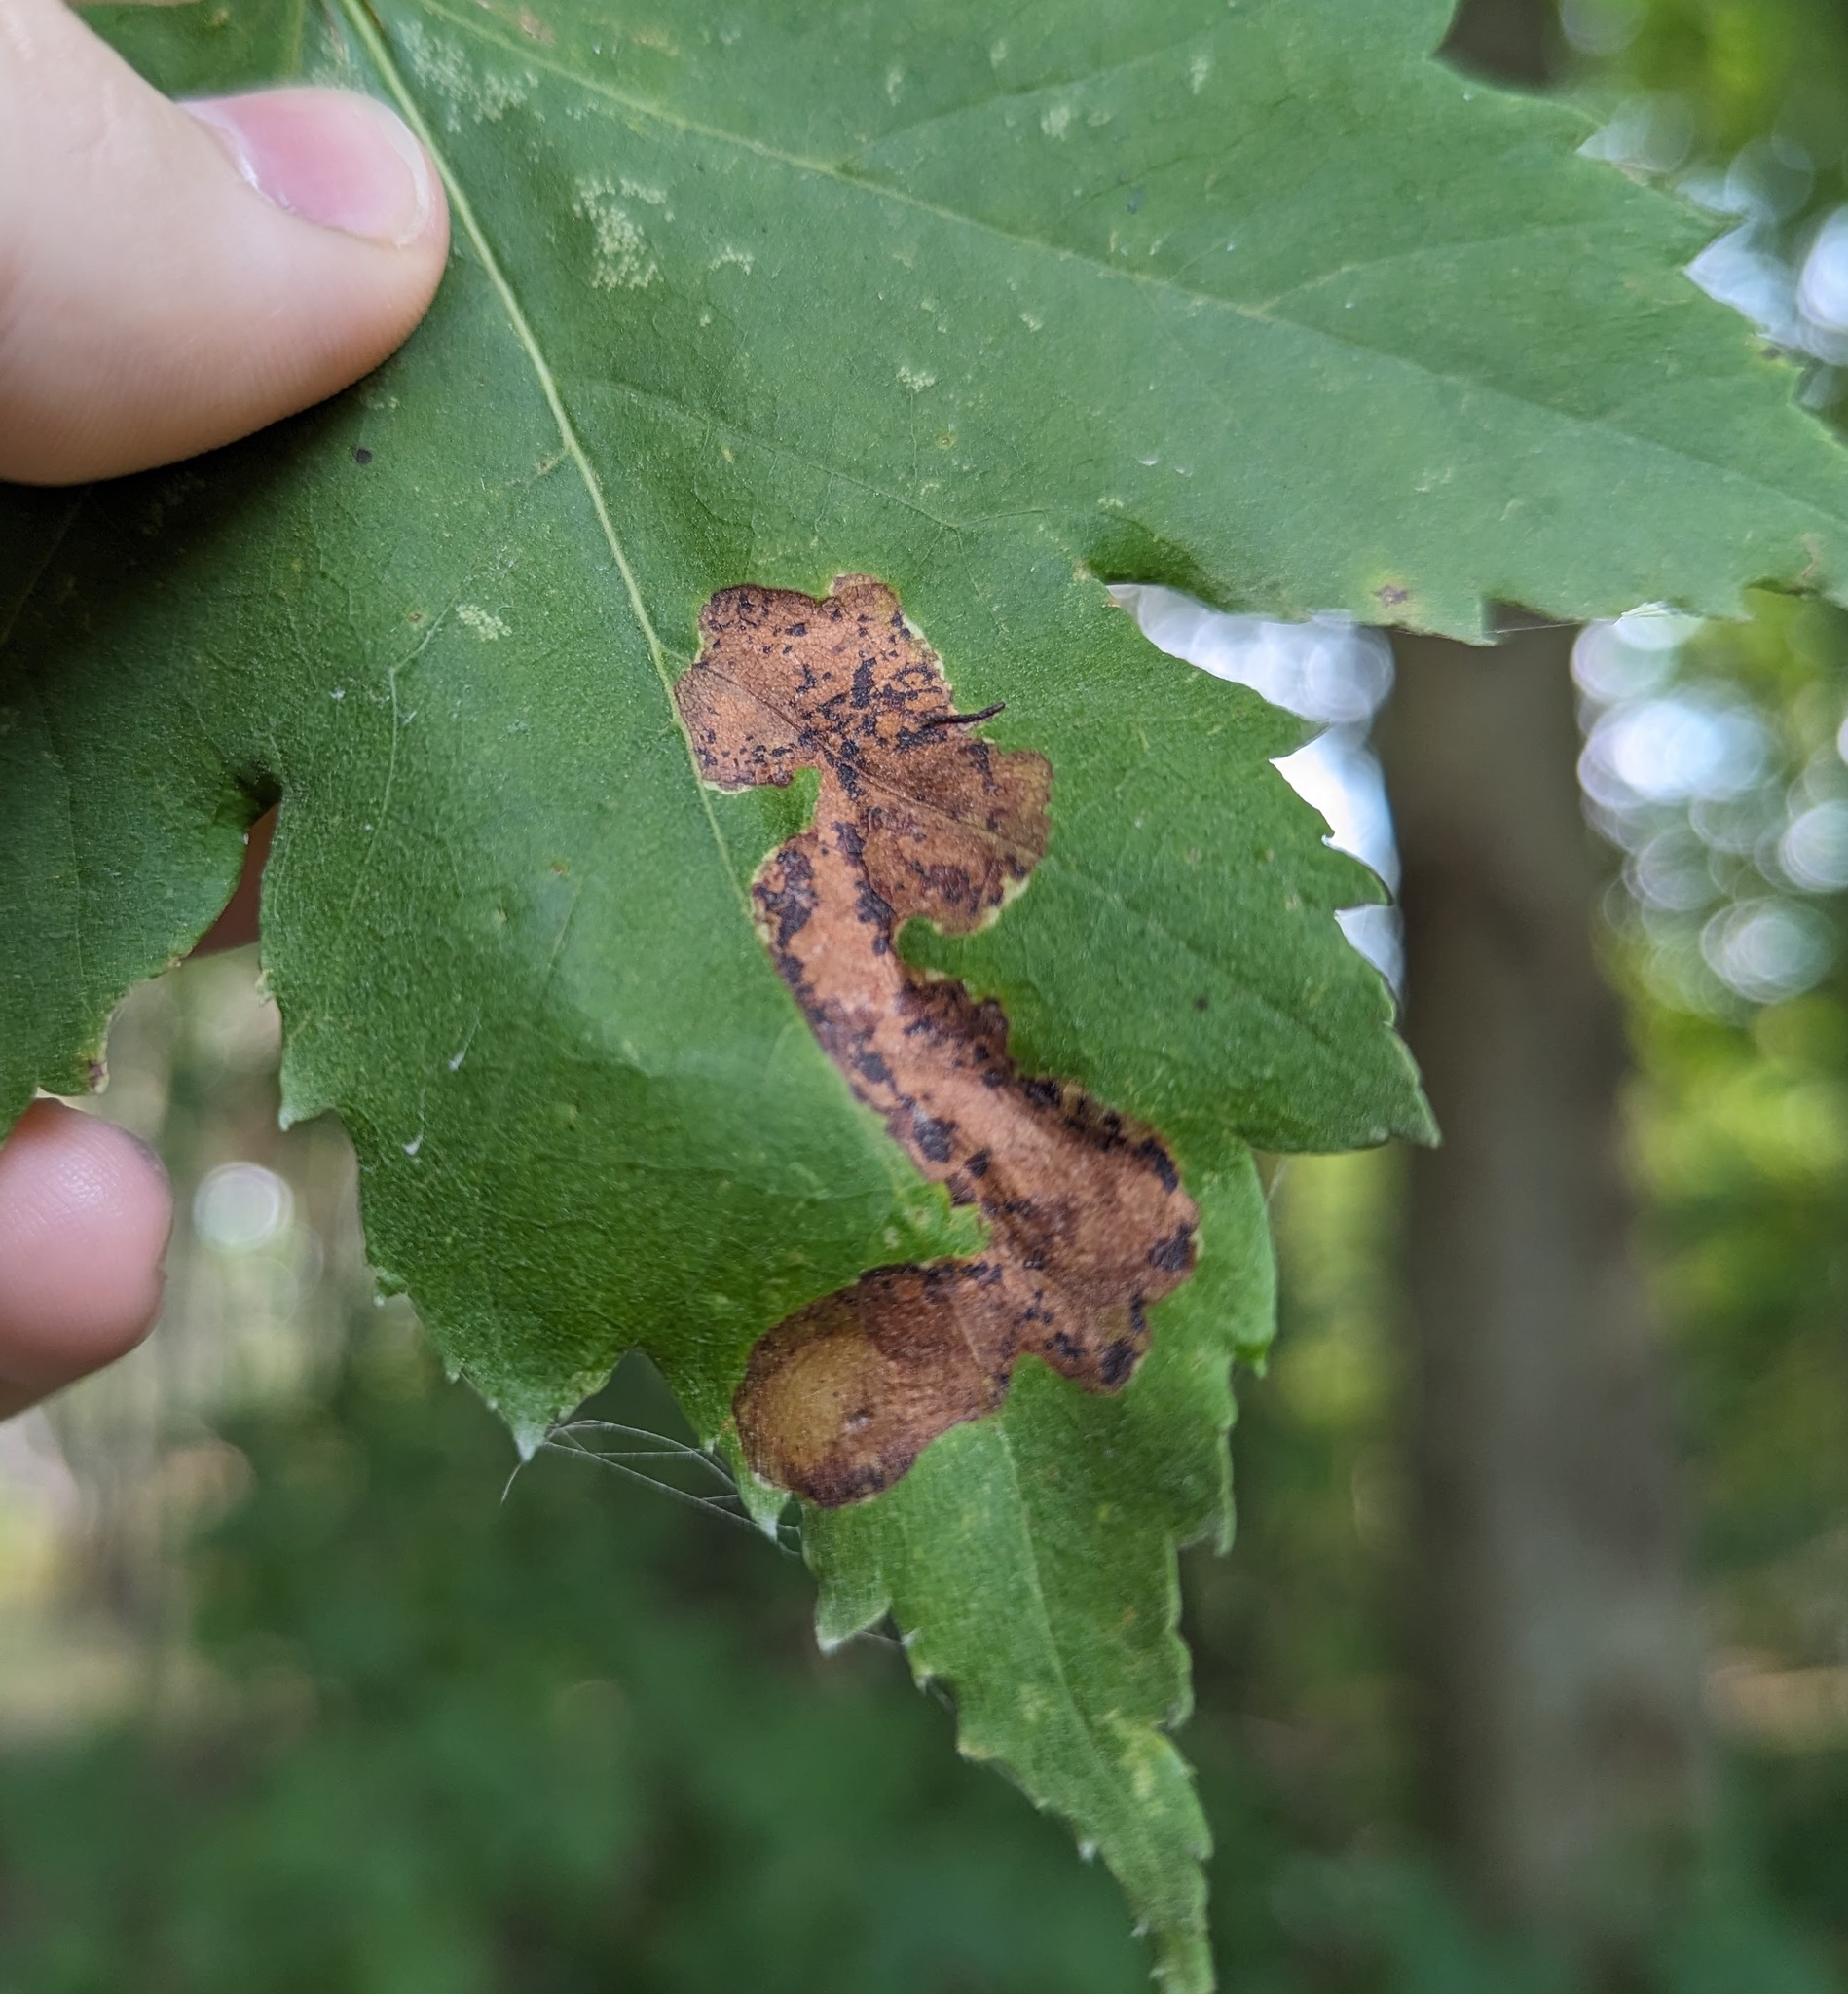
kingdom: Animalia
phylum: Arthropoda
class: Insecta
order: Lepidoptera
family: Gracillariidae
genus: Cameraria
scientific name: Cameraria aceriella
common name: Maple leafblotch miner
